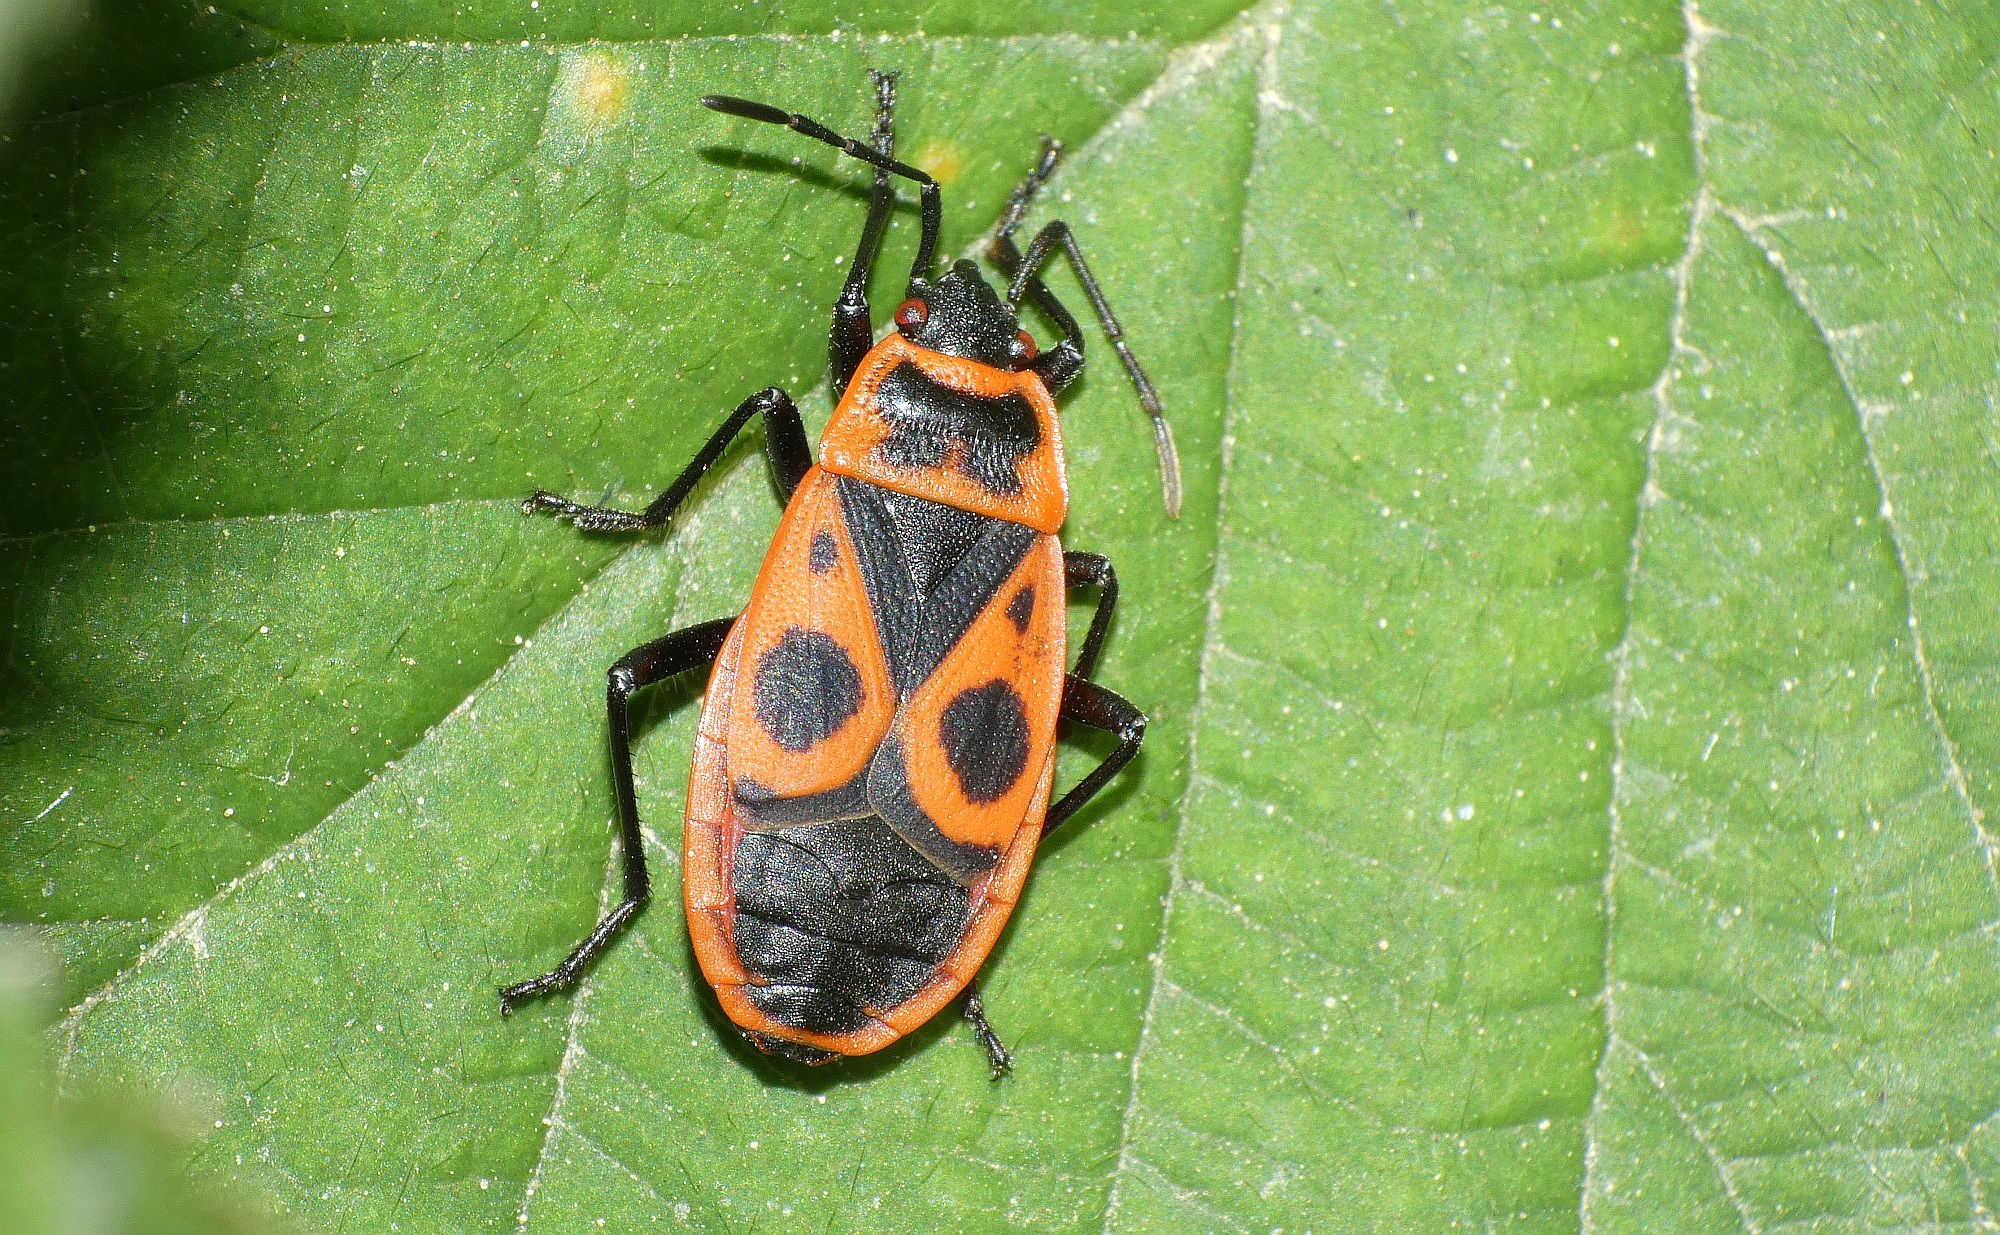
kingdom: Animalia
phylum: Arthropoda
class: Insecta
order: Hemiptera
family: Pyrrhocoridae
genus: Pyrrhocoris
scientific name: Pyrrhocoris apterus
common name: Firebug
